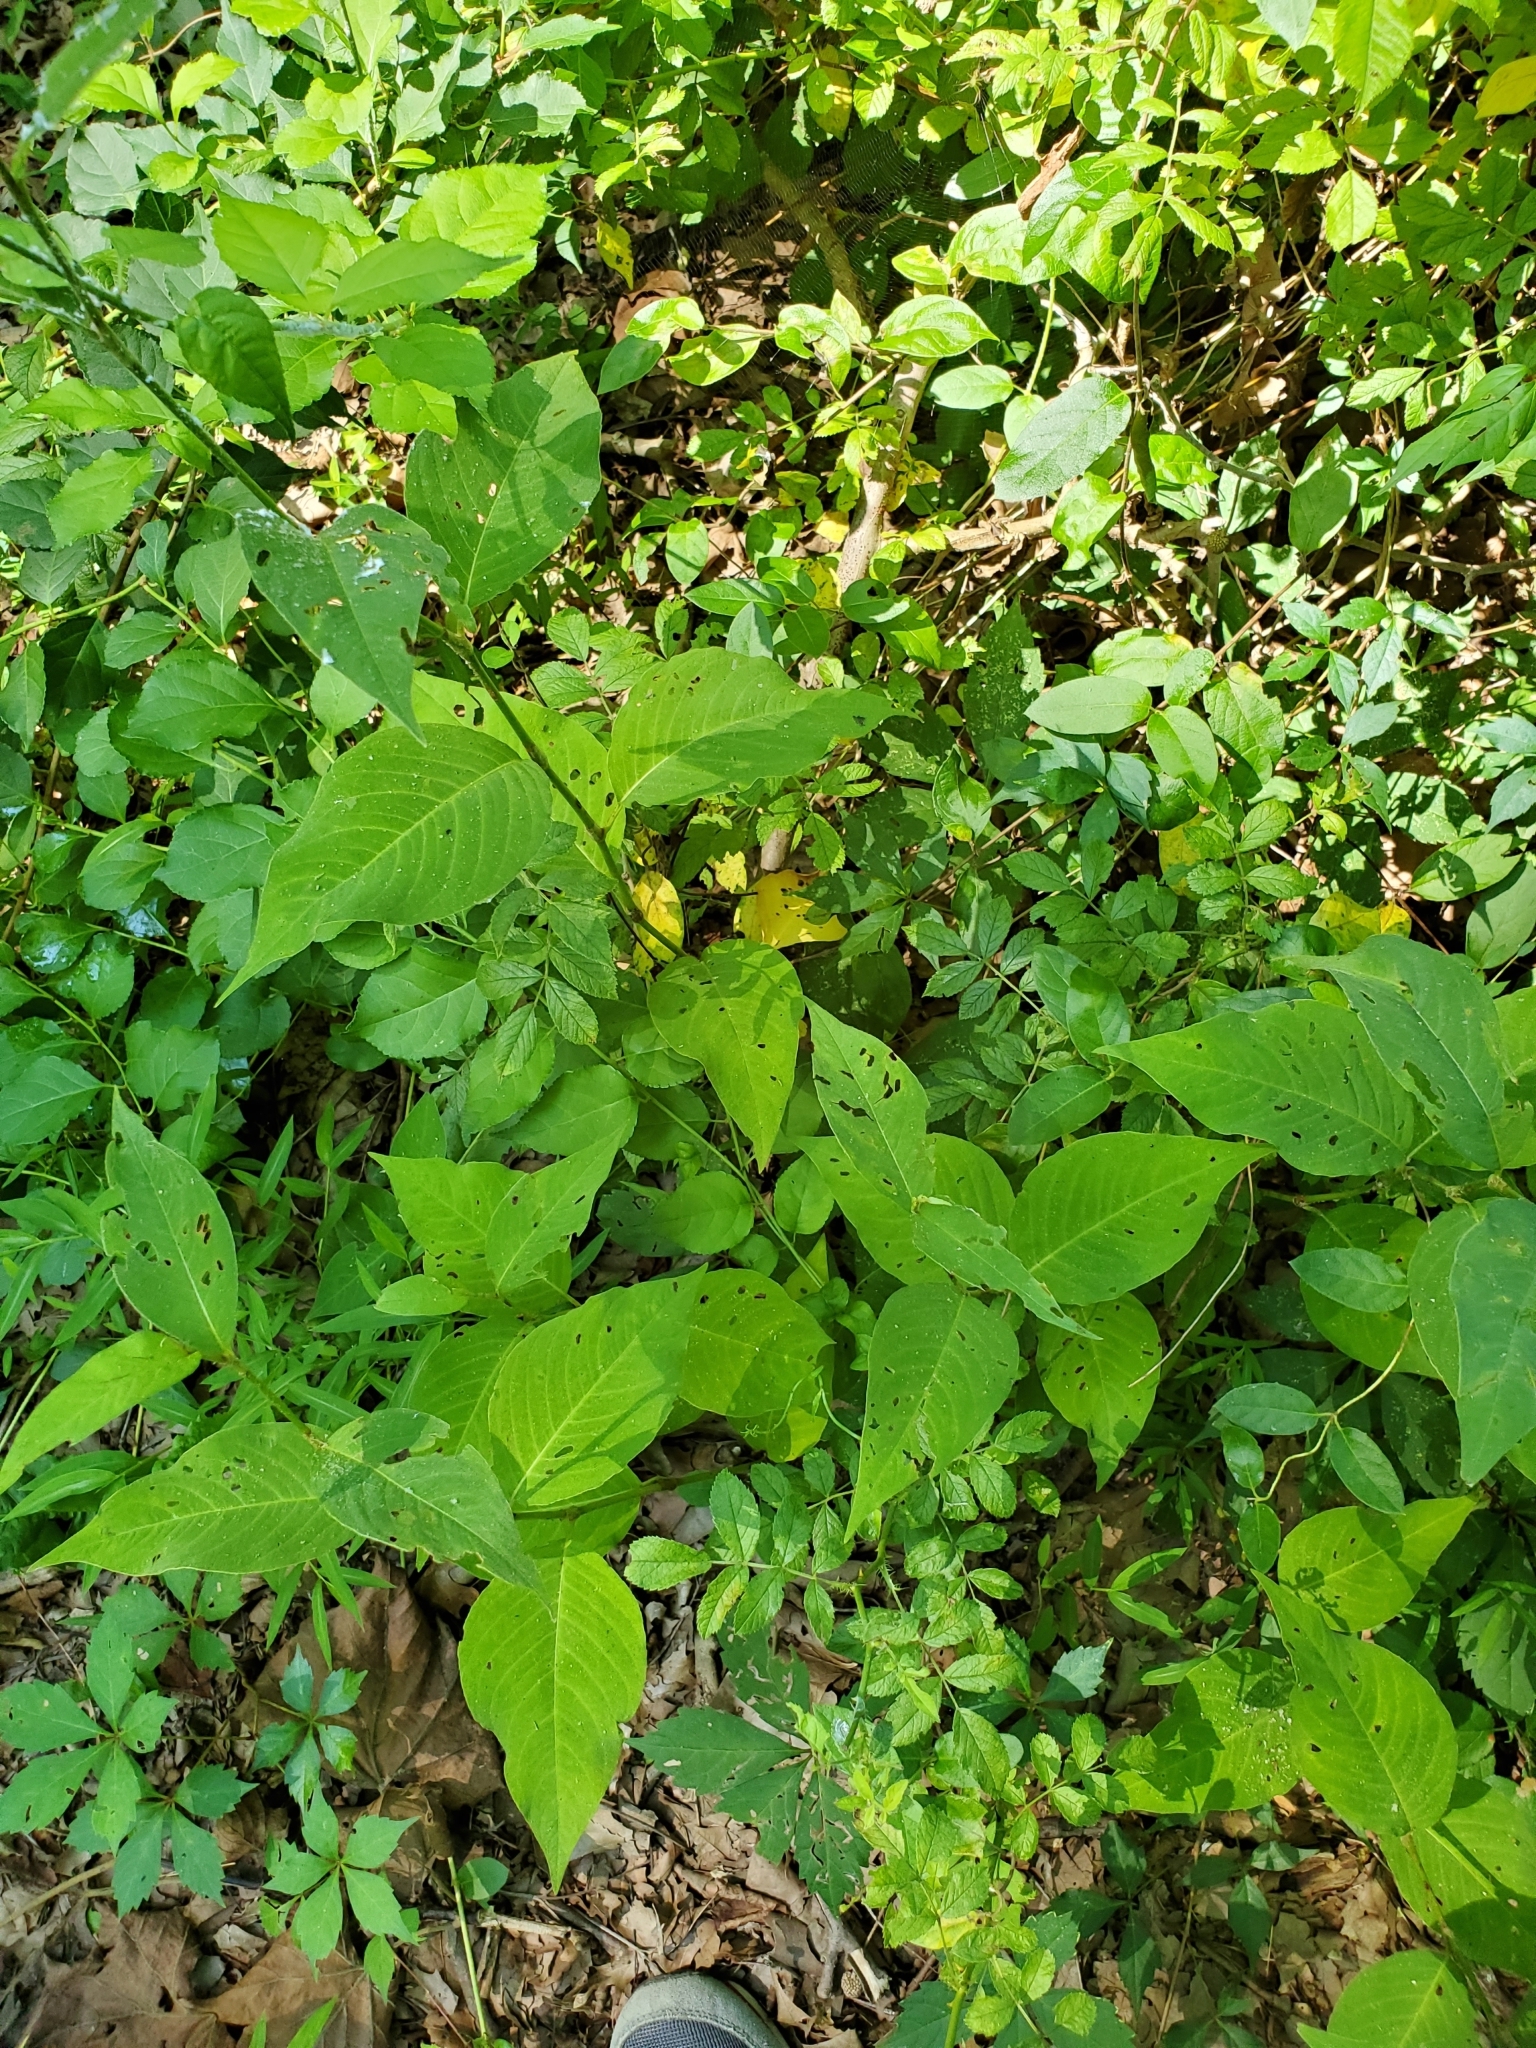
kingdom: Plantae
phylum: Tracheophyta
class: Magnoliopsida
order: Caryophyllales
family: Polygonaceae
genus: Persicaria
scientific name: Persicaria virginiana
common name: Jumpseed
